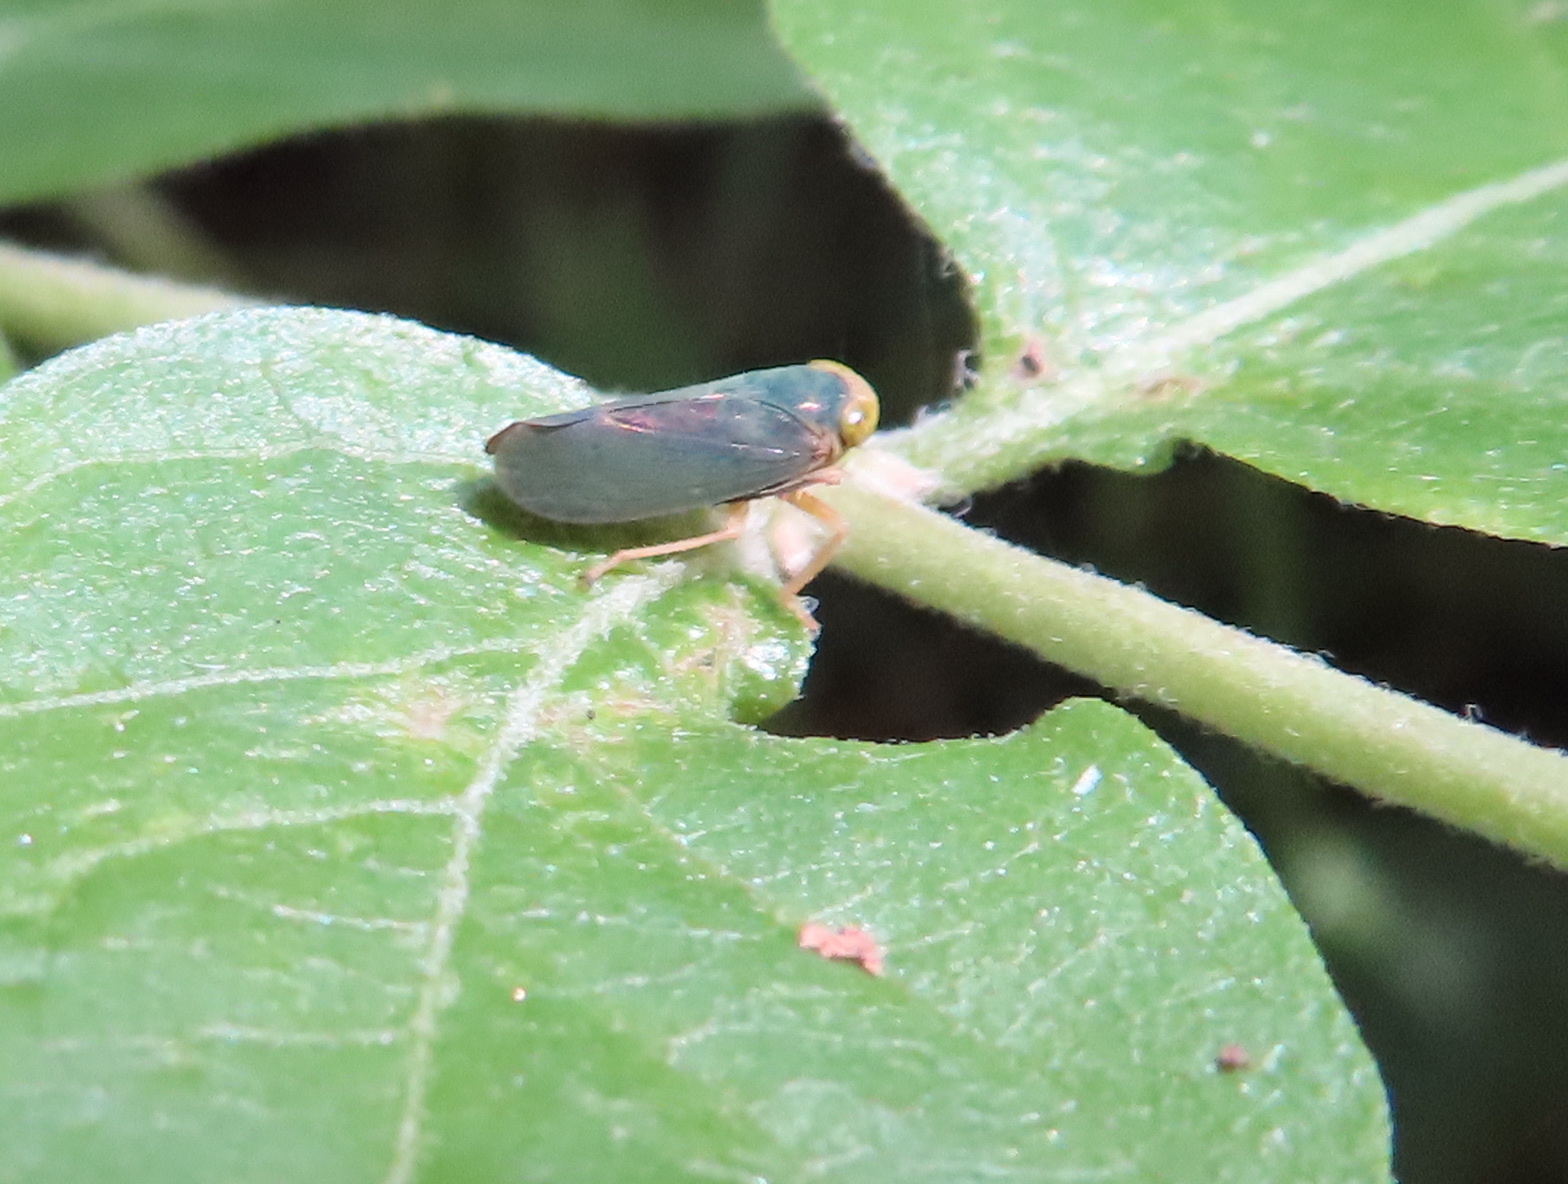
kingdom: Animalia
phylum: Arthropoda
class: Insecta
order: Hemiptera
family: Cicadellidae
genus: Jikradia
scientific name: Jikradia olitoria
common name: Coppery leafhopper
